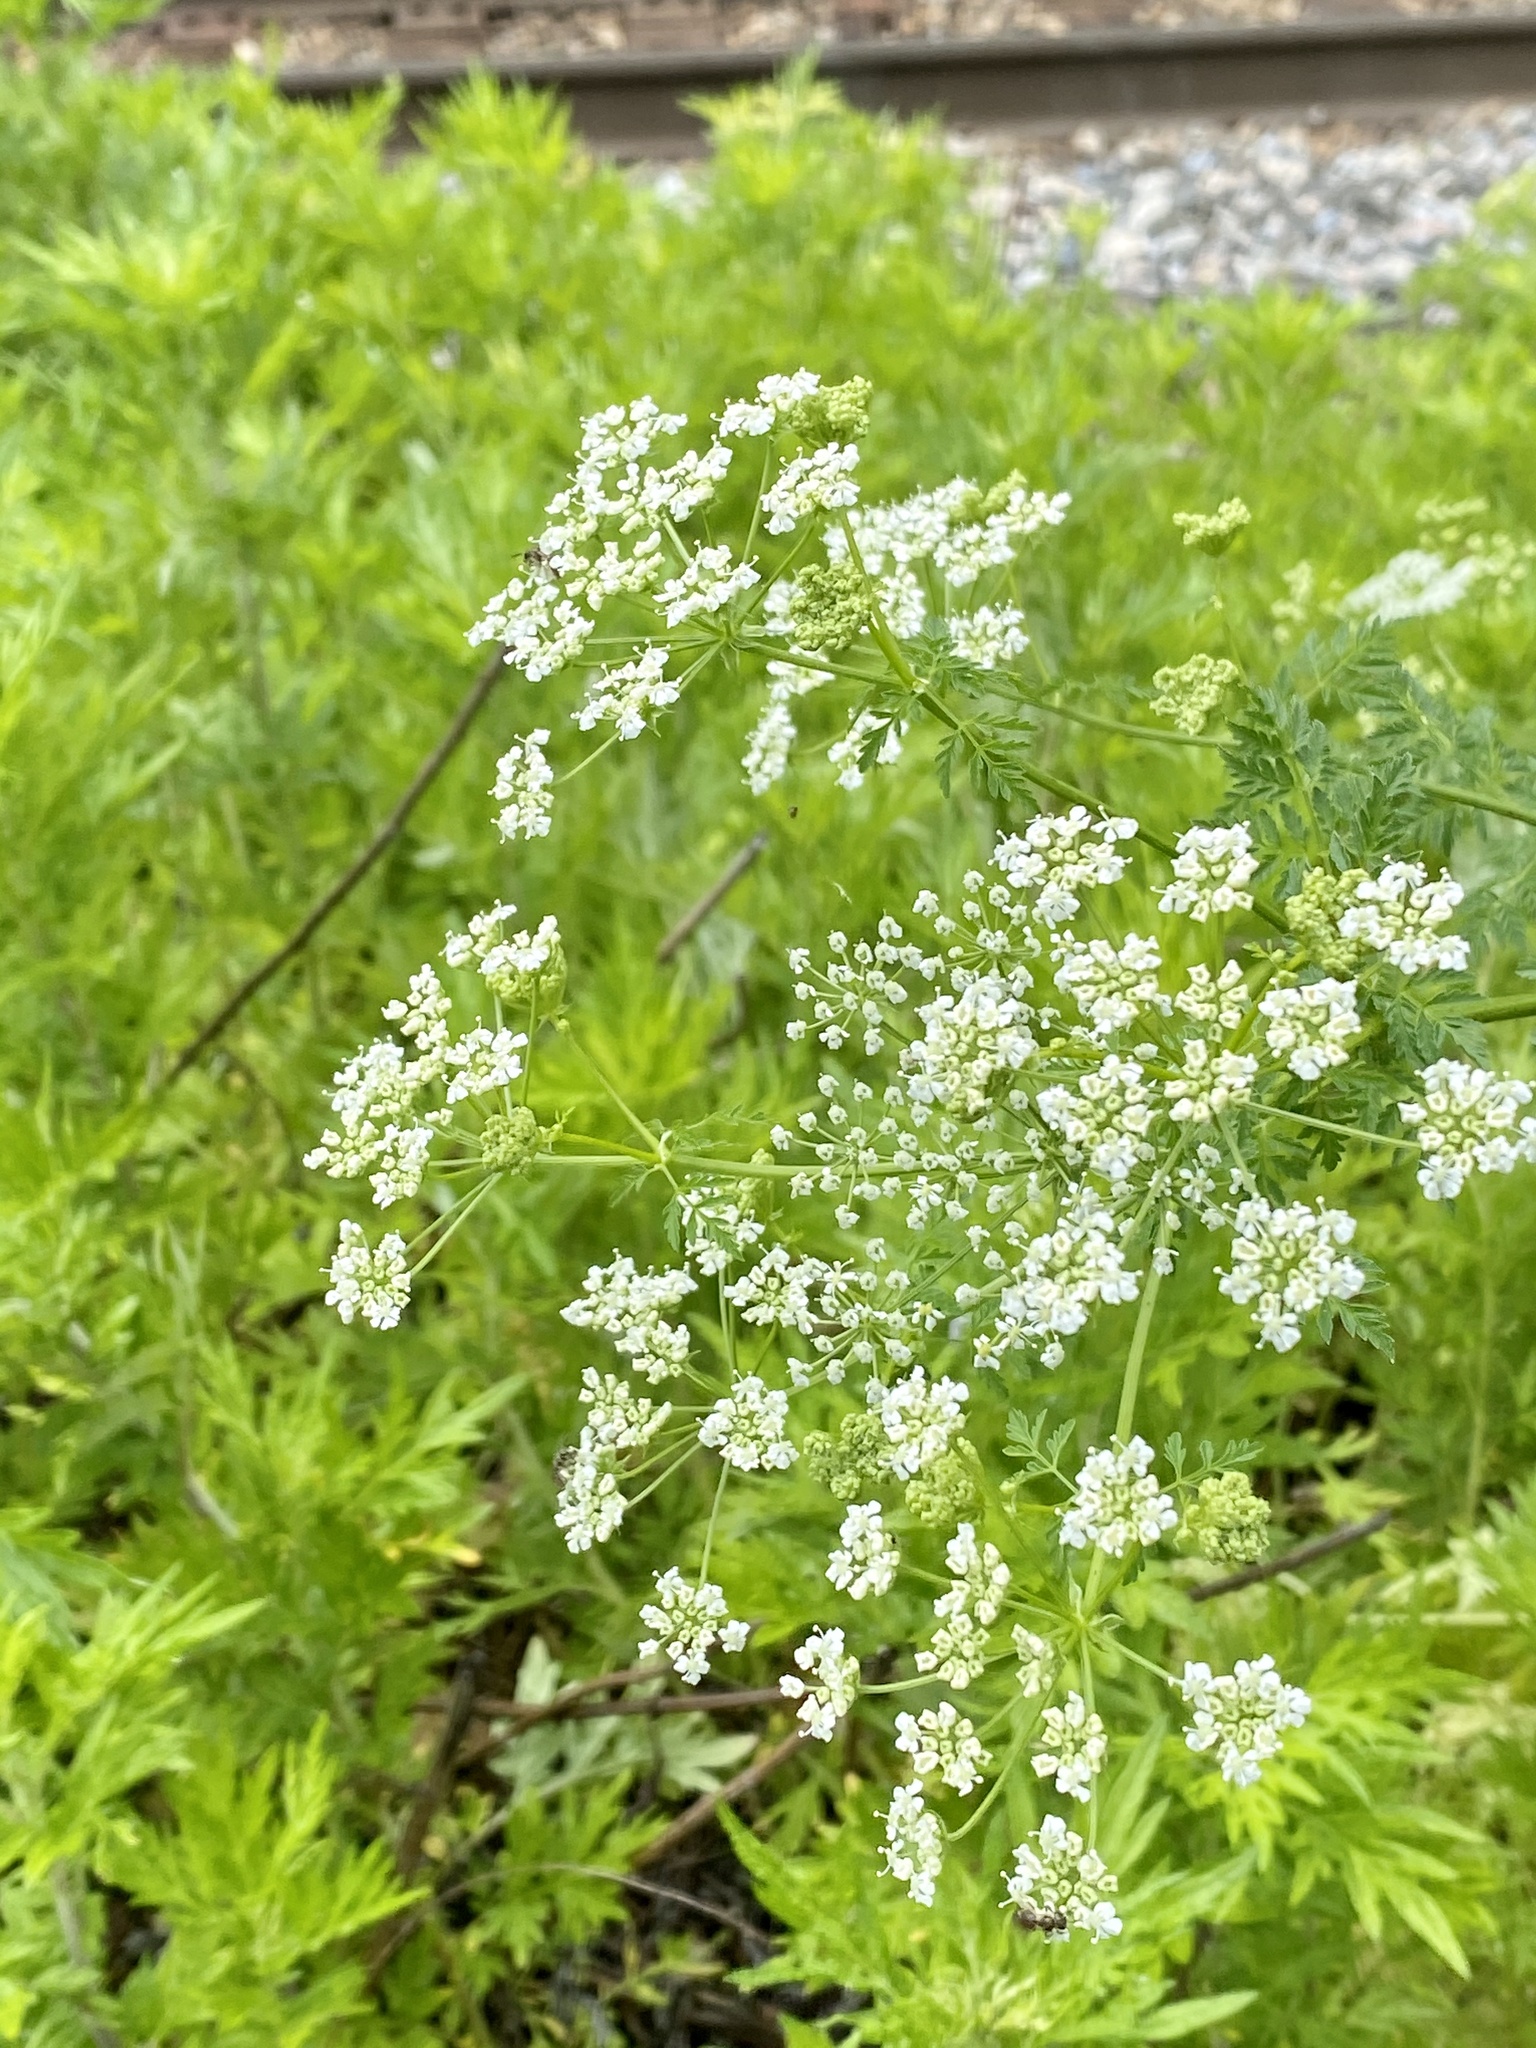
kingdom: Plantae
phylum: Tracheophyta
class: Magnoliopsida
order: Apiales
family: Apiaceae
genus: Conium
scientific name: Conium maculatum
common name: Hemlock
